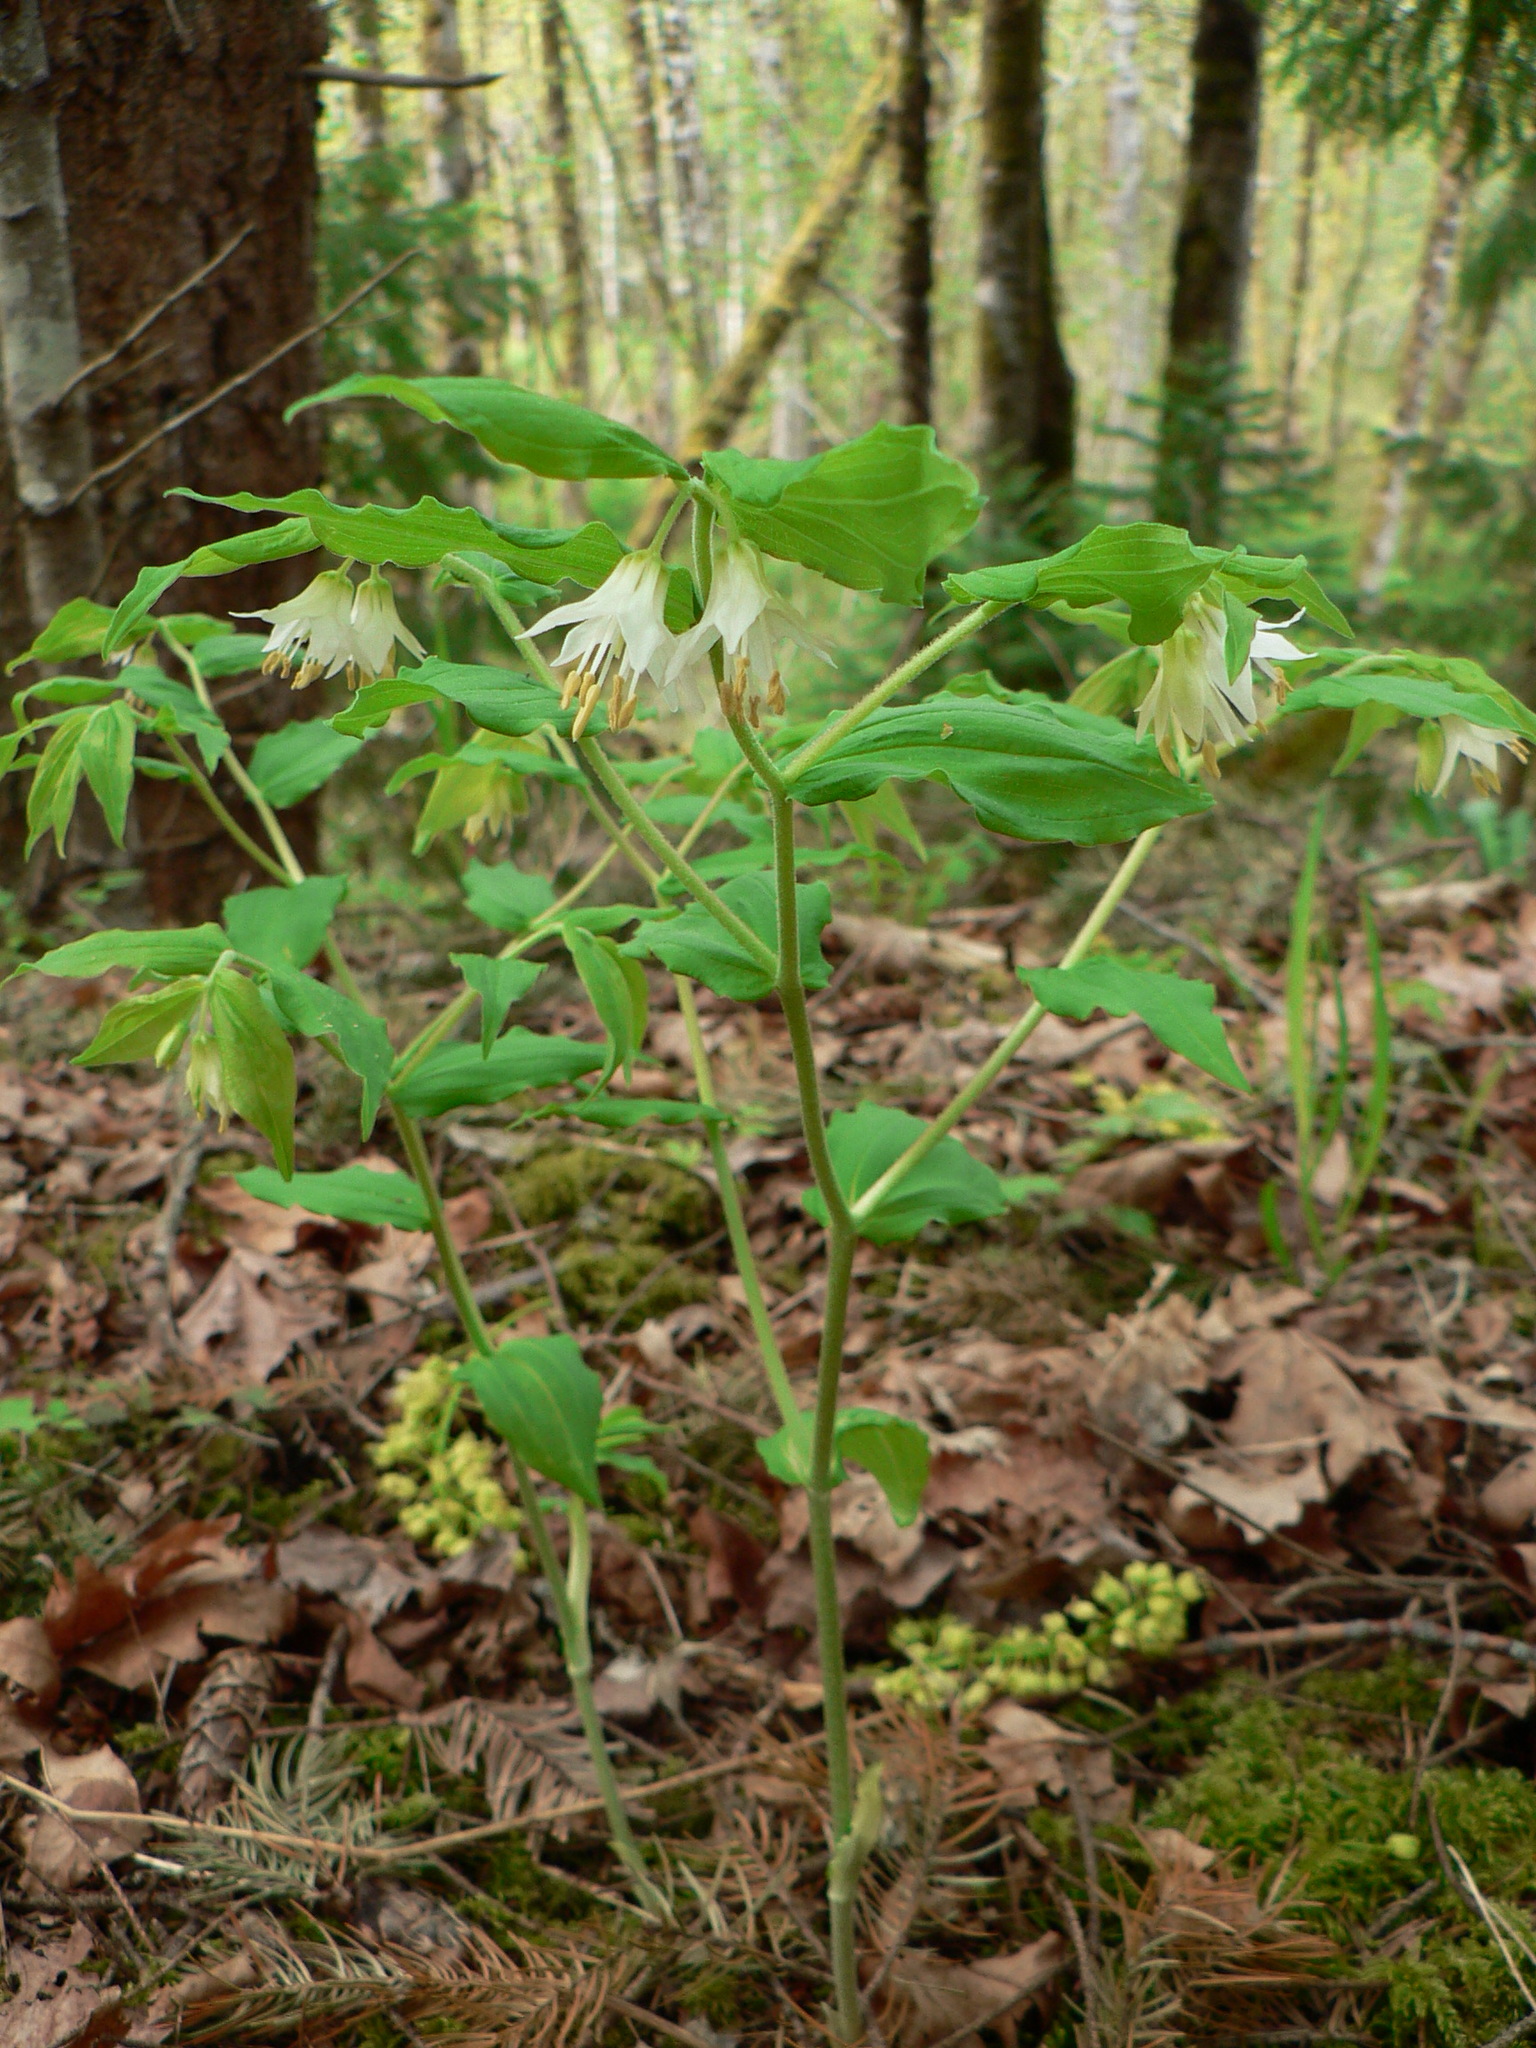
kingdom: Plantae
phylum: Tracheophyta
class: Liliopsida
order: Liliales
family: Liliaceae
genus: Prosartes
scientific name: Prosartes hookeri
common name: Fairy-bells
